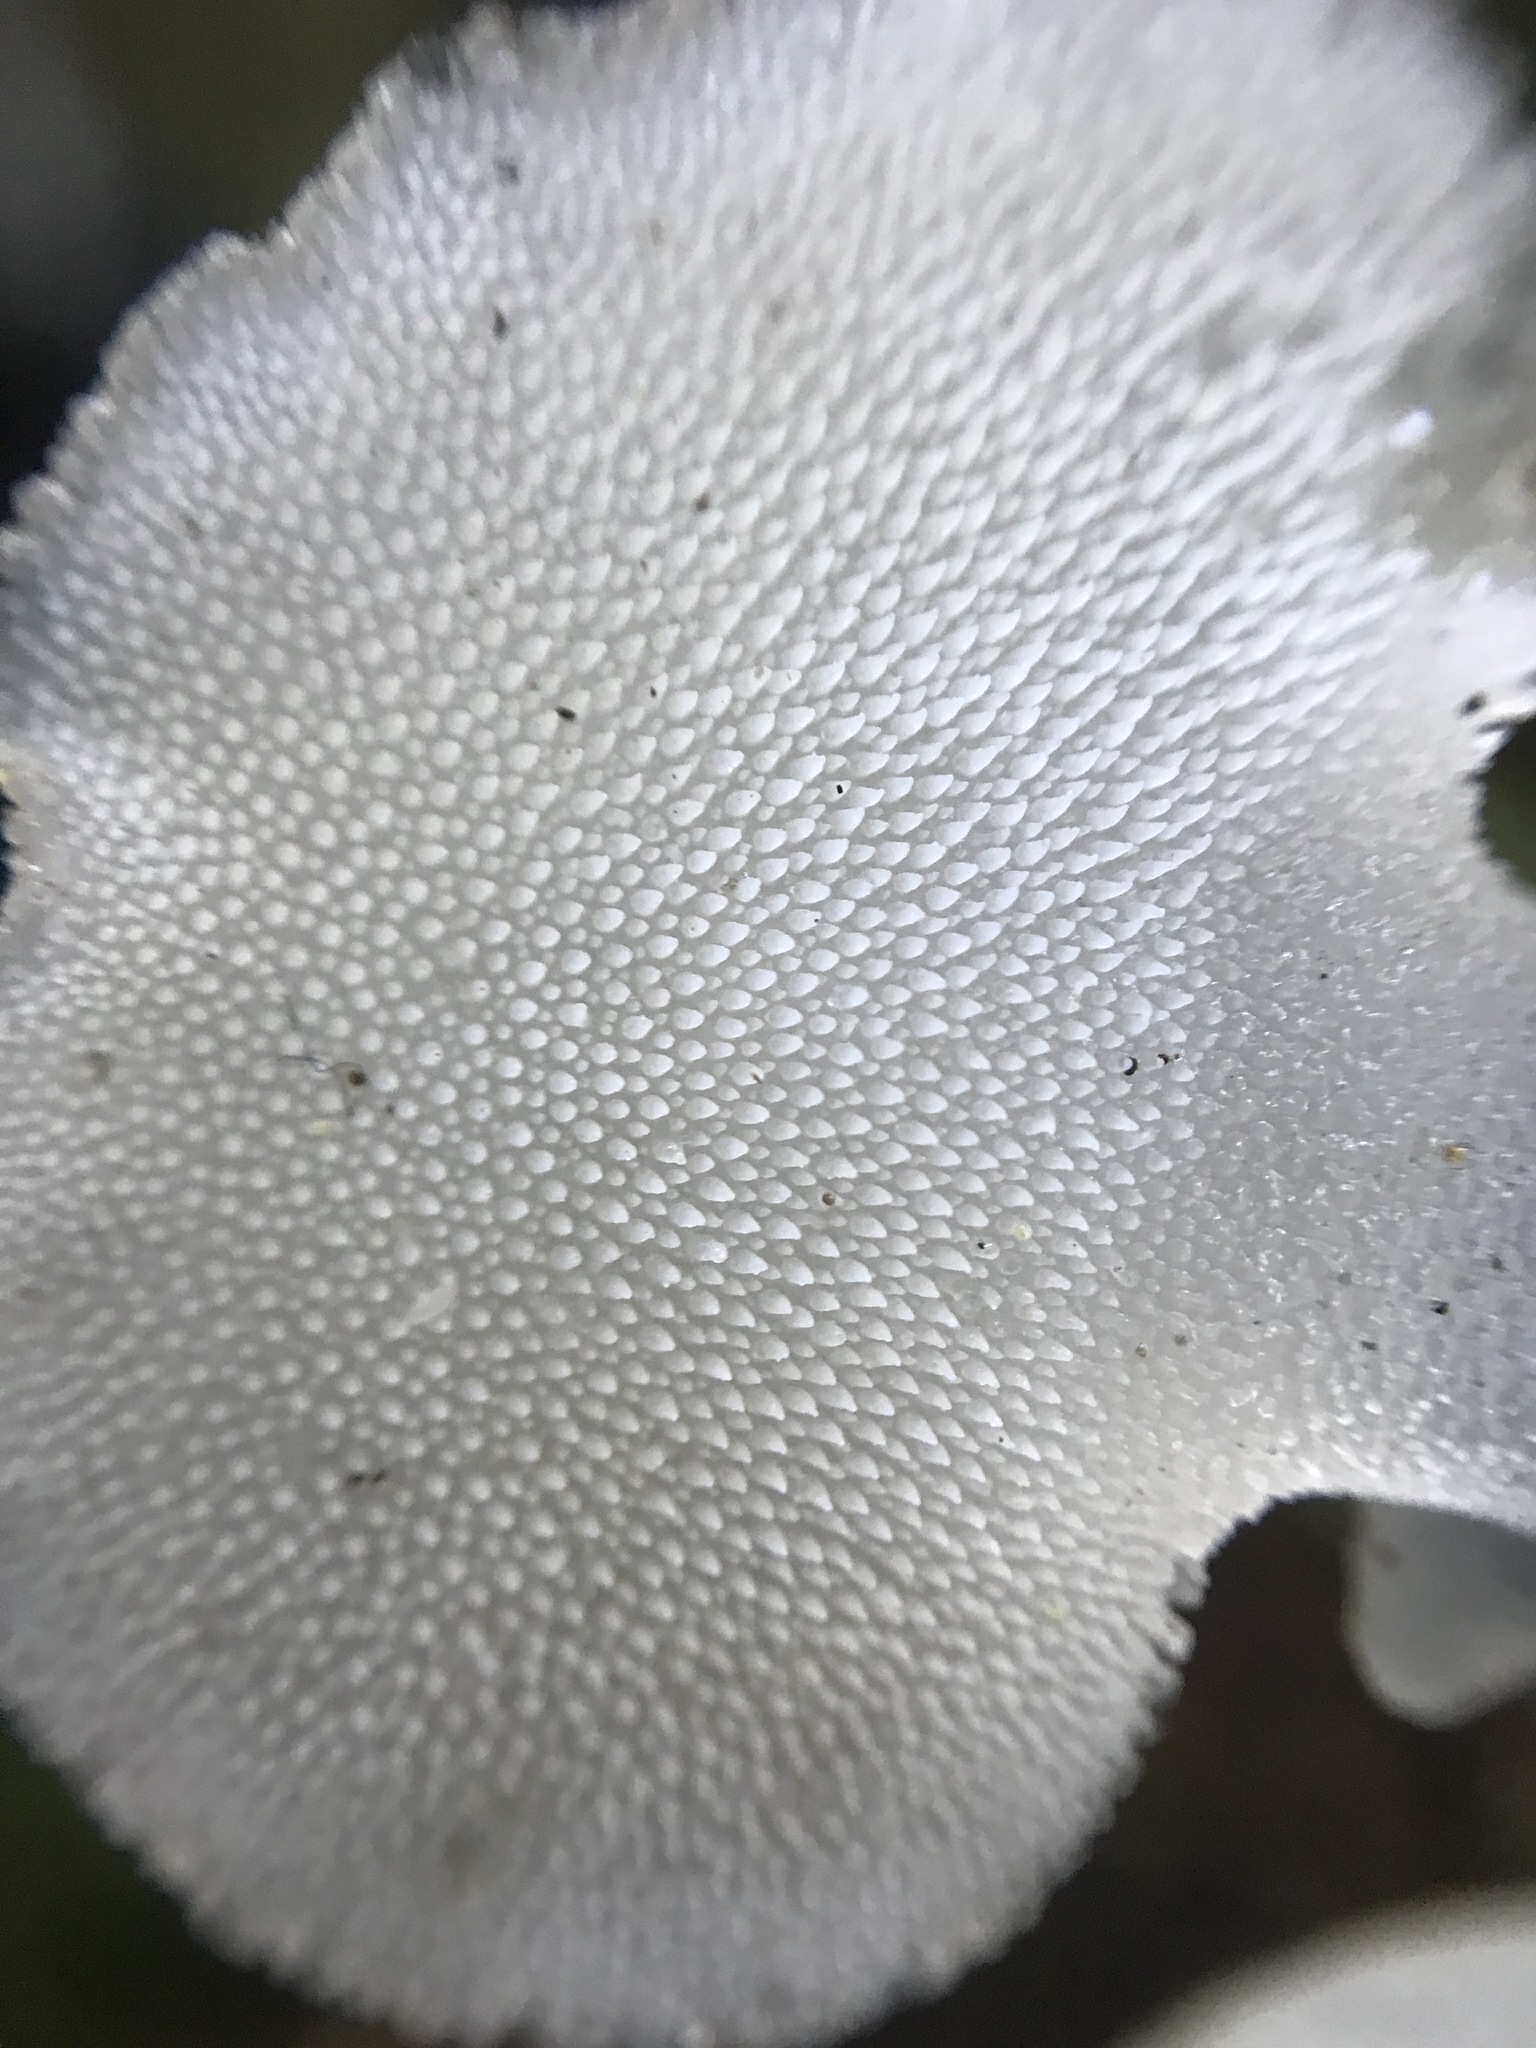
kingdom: Fungi
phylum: Basidiomycota
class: Agaricomycetes
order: Auriculariales
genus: Pseudohydnum
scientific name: Pseudohydnum gelatinosum
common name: Jelly tongue
